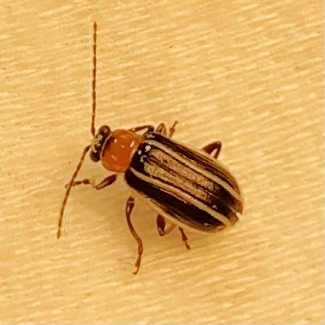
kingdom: Animalia
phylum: Arthropoda
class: Insecta
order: Coleoptera
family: Chrysomelidae
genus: Acalymma
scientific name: Acalymma vinctum
